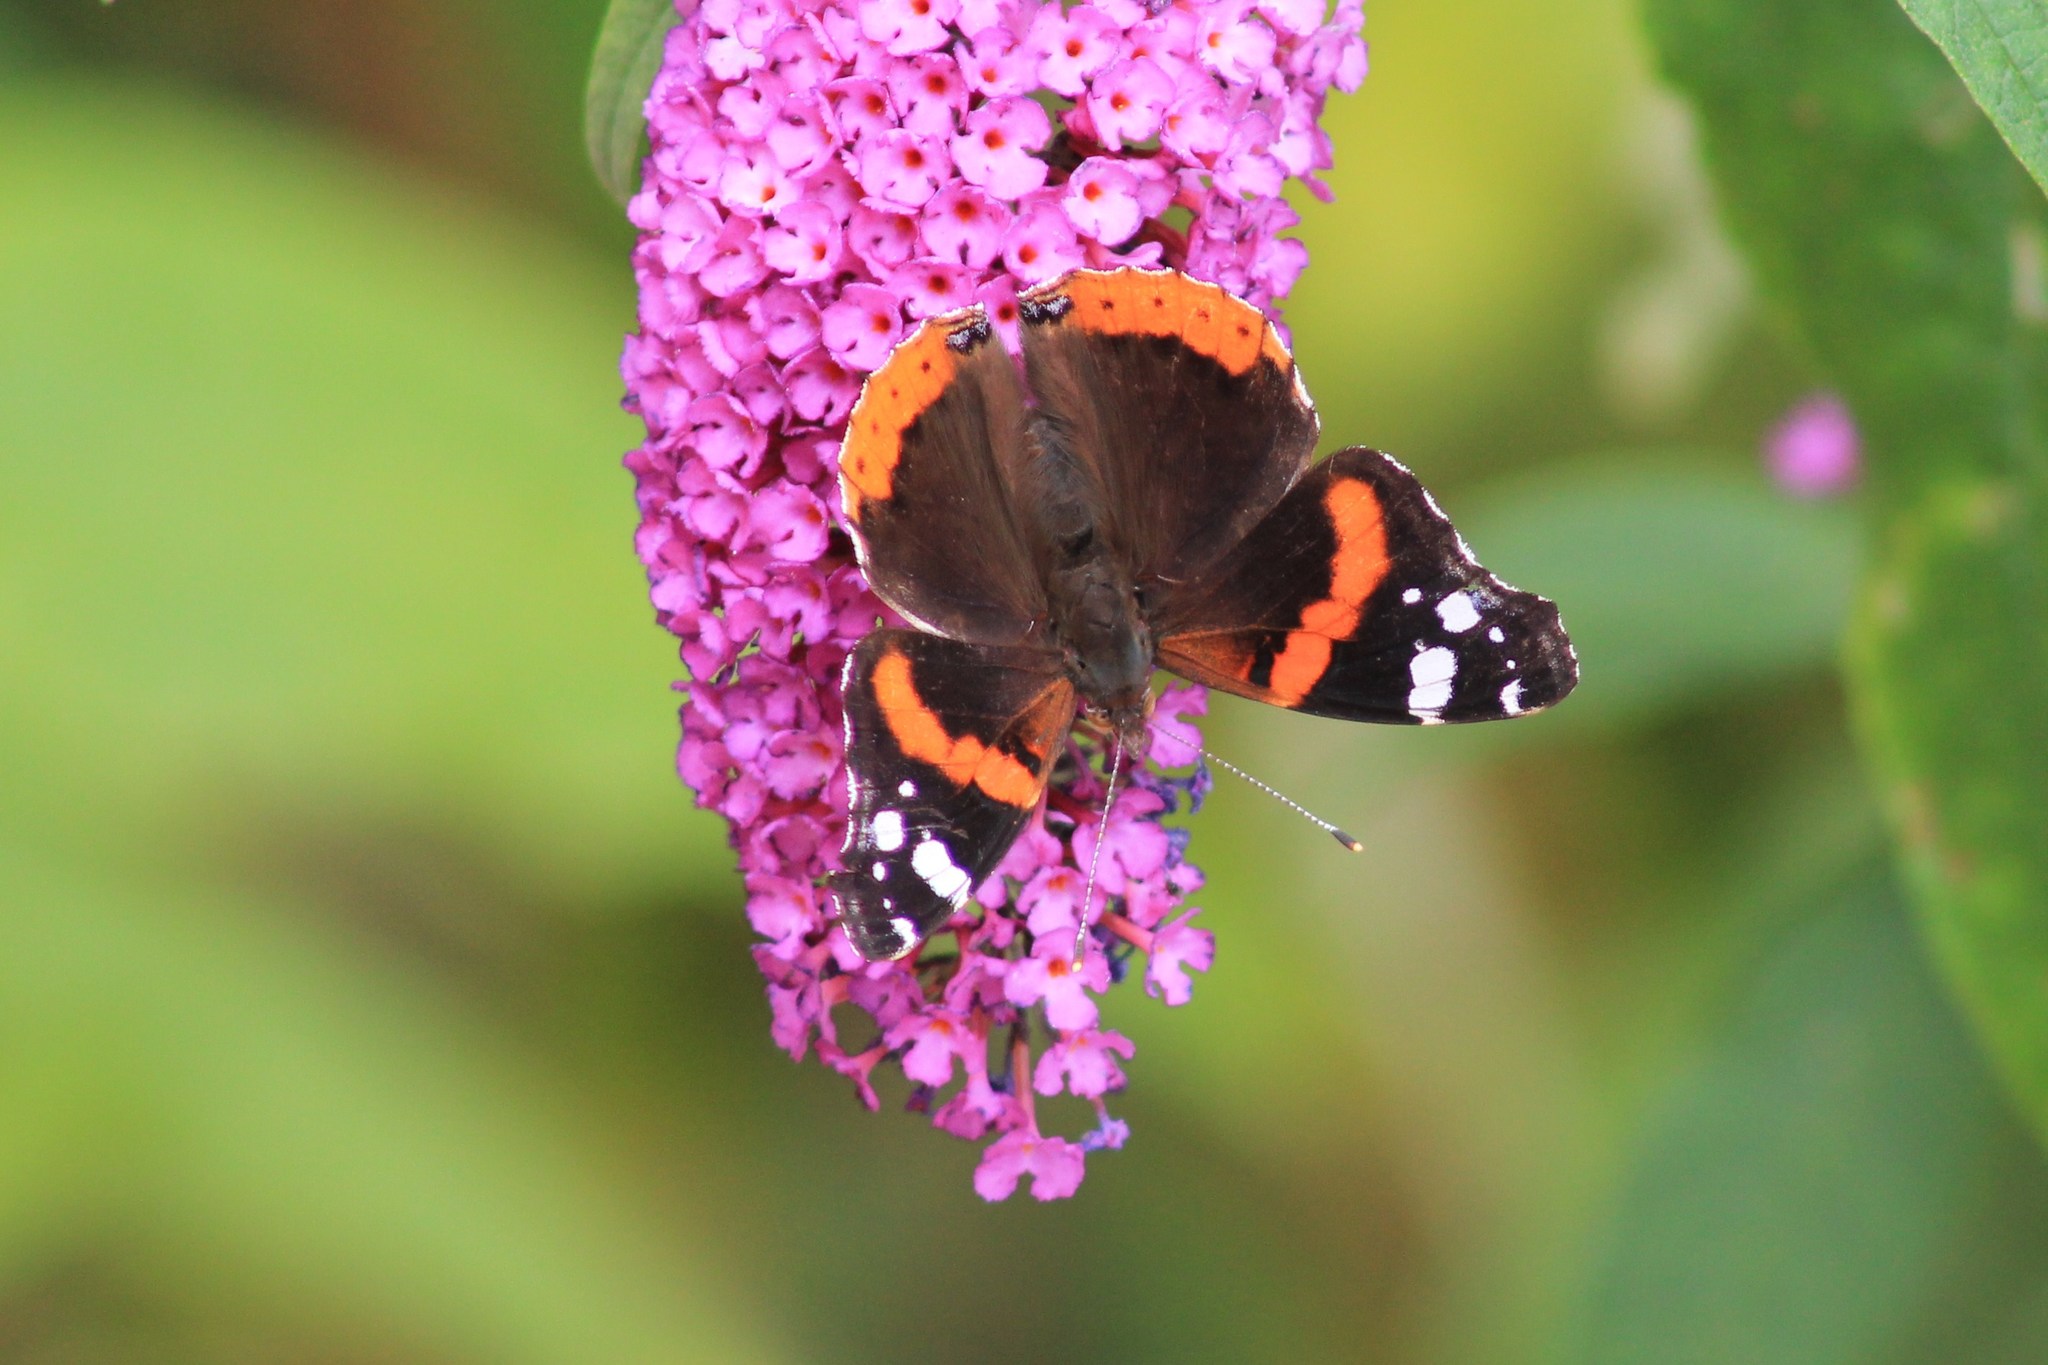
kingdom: Animalia
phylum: Arthropoda
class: Insecta
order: Lepidoptera
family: Nymphalidae
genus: Vanessa
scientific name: Vanessa atalanta
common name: Red admiral
